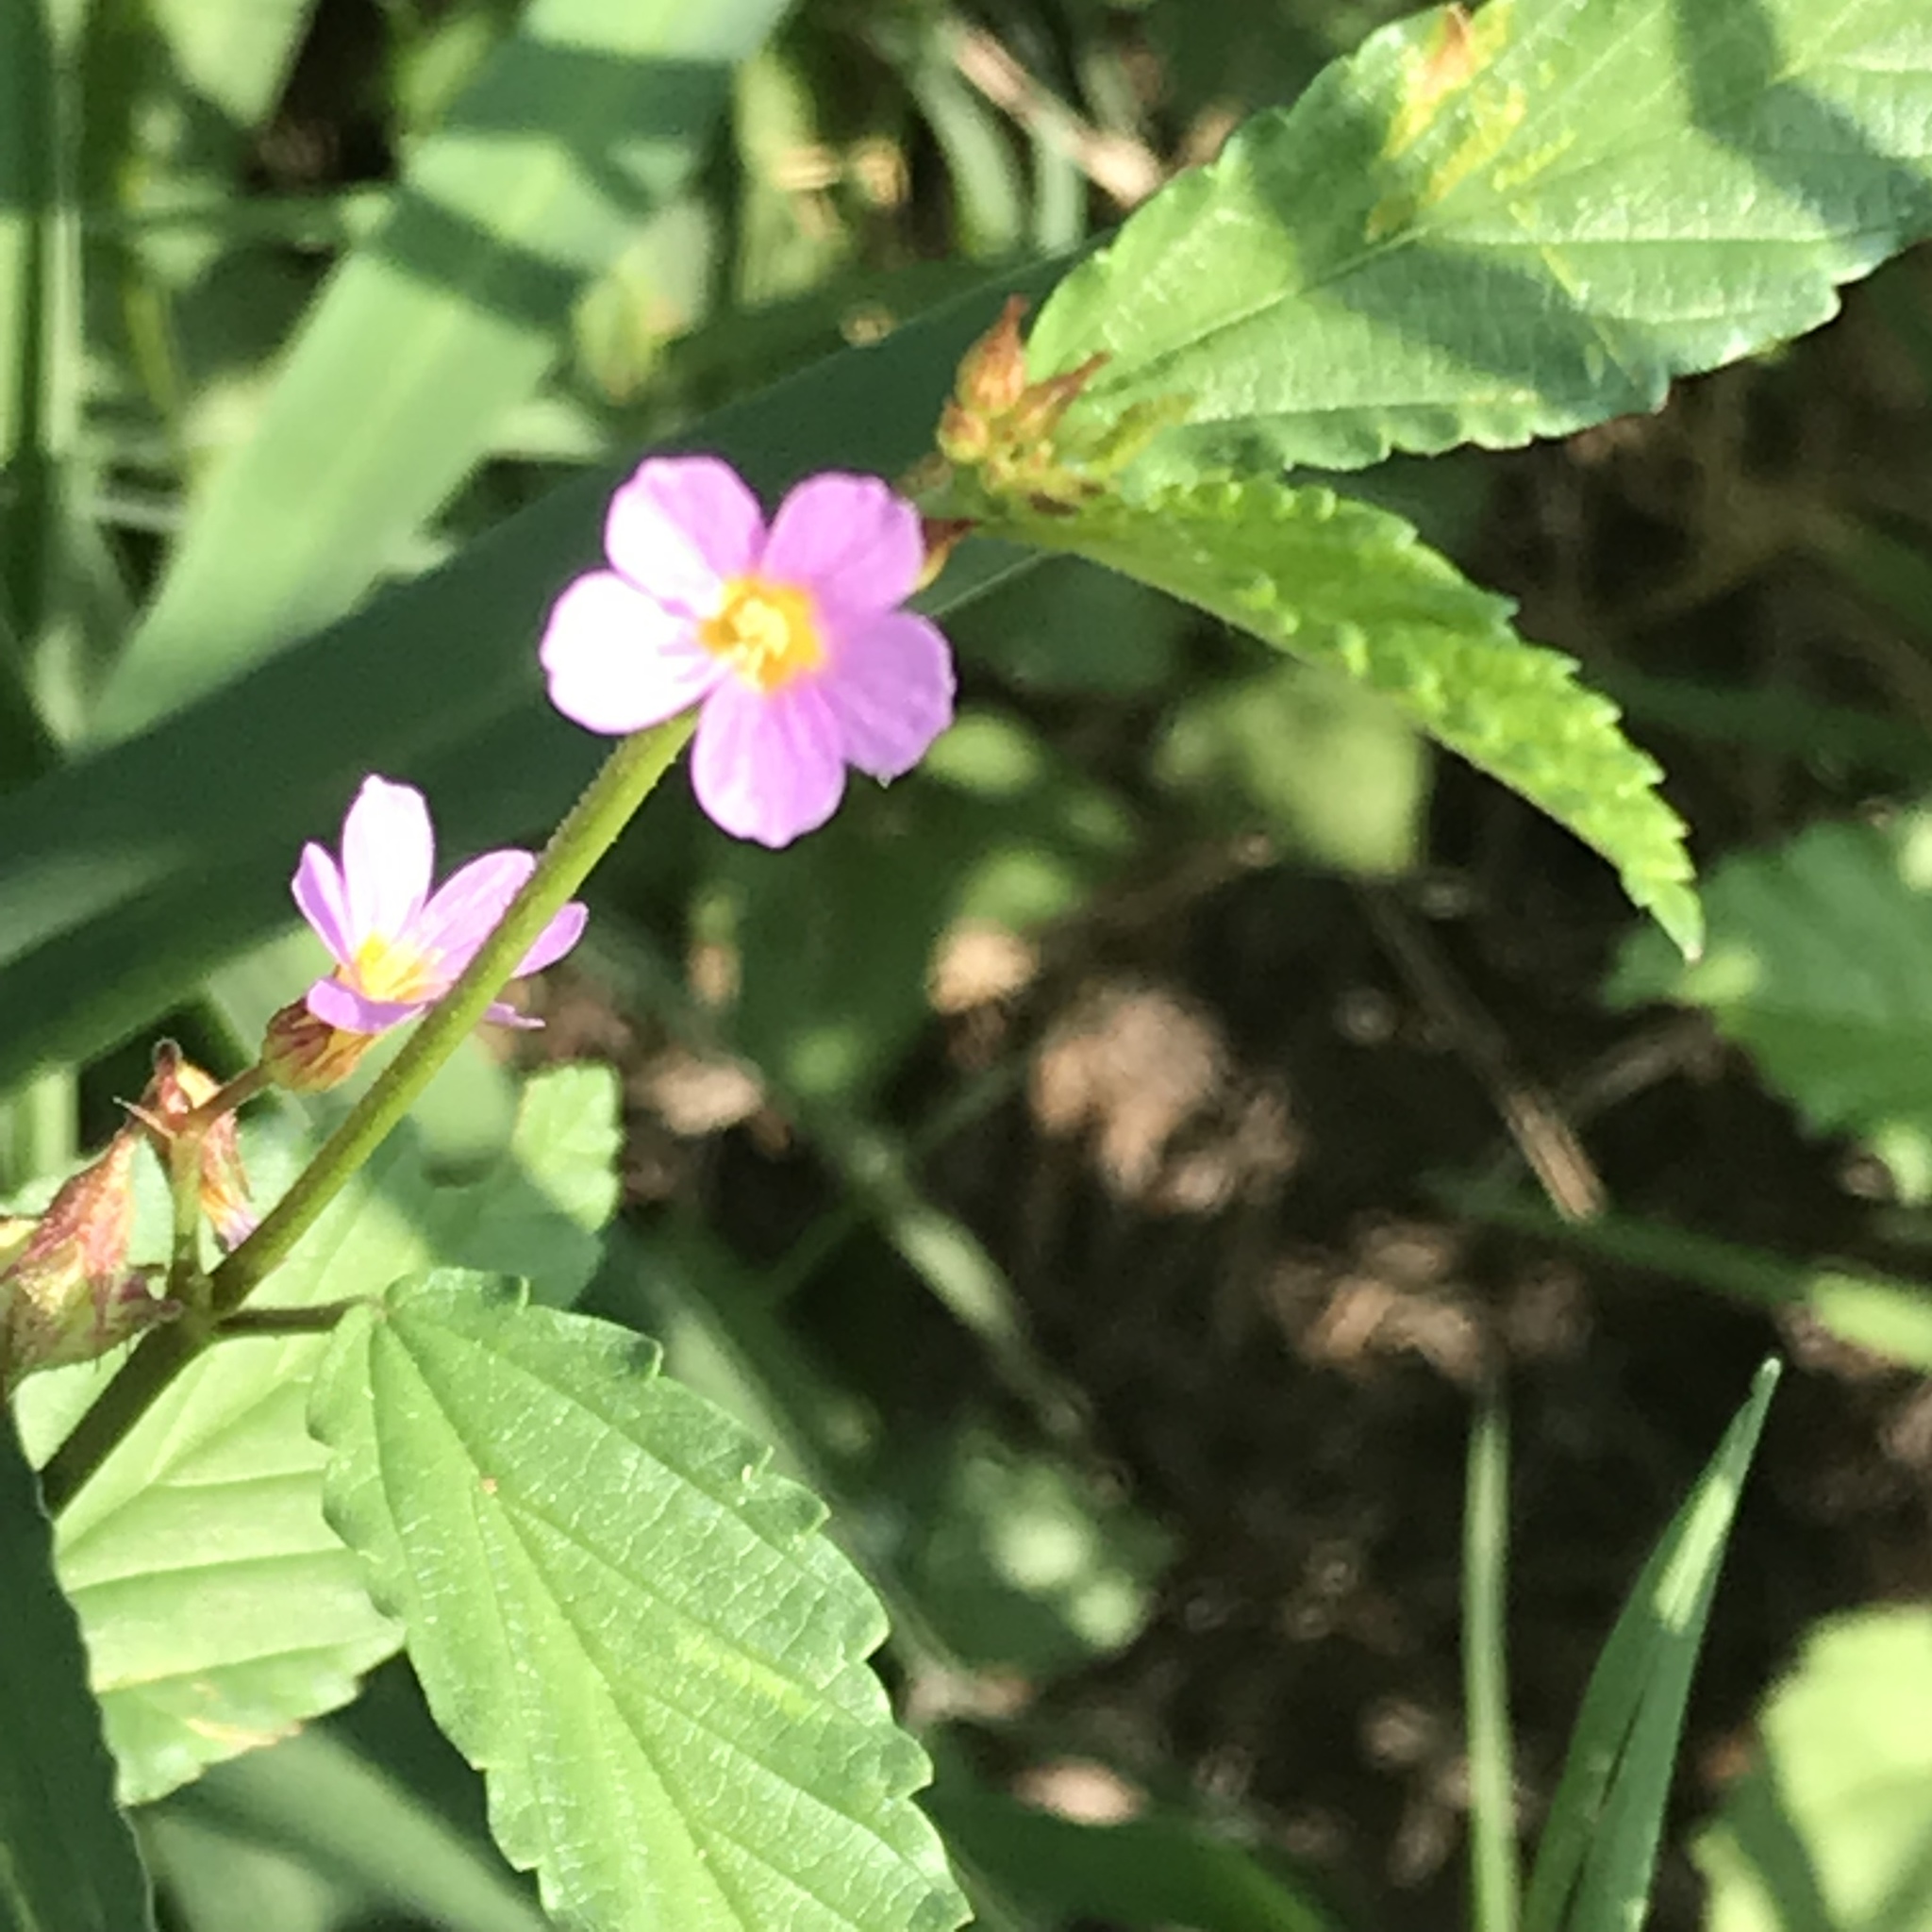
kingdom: Plantae
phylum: Tracheophyta
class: Magnoliopsida
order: Malvales
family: Malvaceae
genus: Melochia
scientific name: Melochia pyramidata
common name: Pyramidflower
